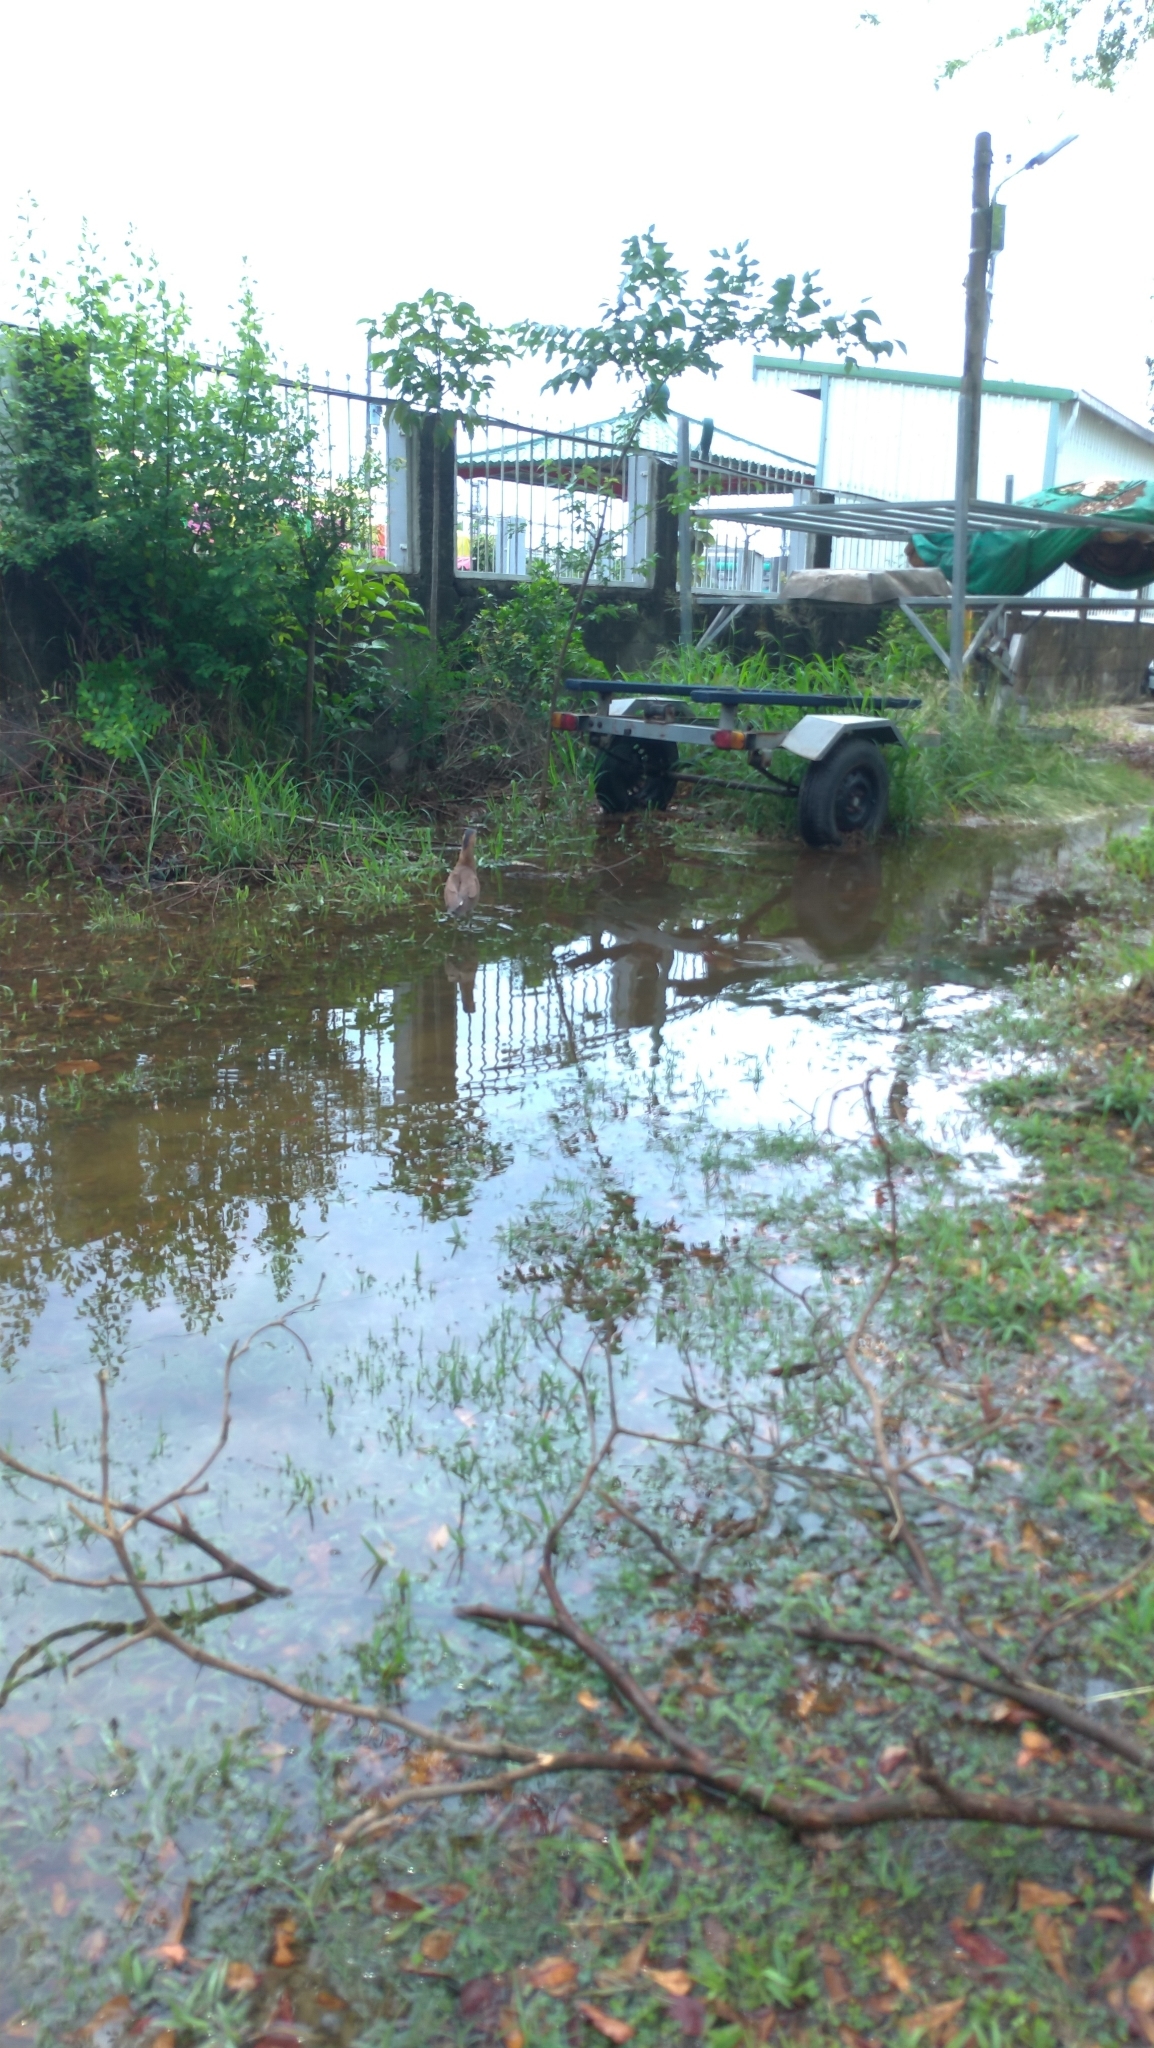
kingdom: Animalia
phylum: Chordata
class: Aves
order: Pelecaniformes
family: Ardeidae
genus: Gorsachius
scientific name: Gorsachius melanolophus
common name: Malayan night heron
